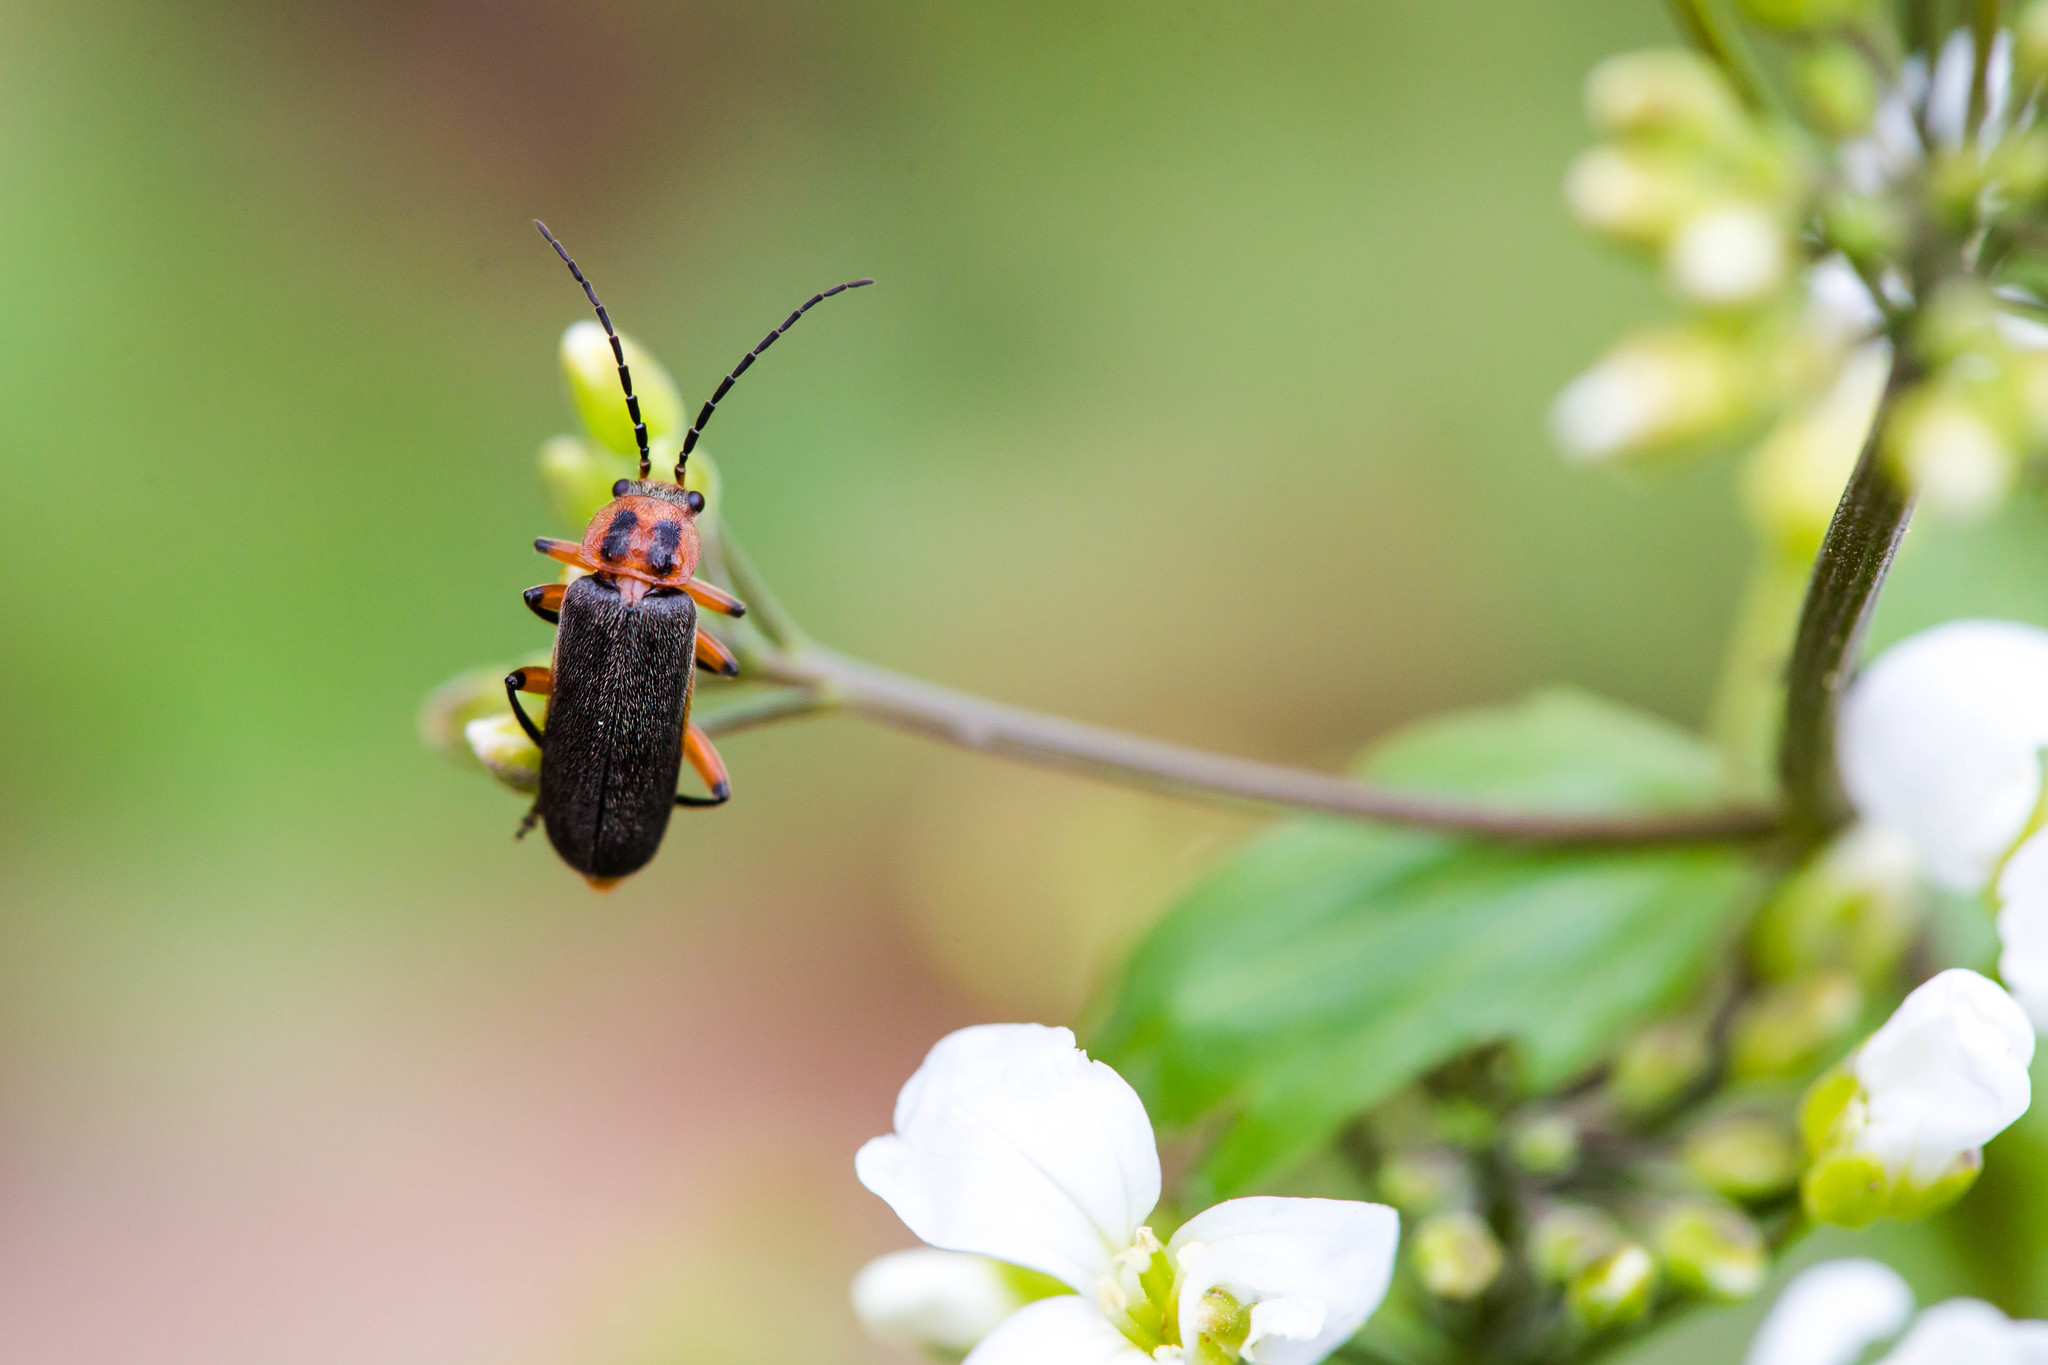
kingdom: Animalia
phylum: Arthropoda
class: Insecta
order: Coleoptera
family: Cantharidae
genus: Atalantycha
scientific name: Atalantycha bilineata
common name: Two-lined leatherwing
